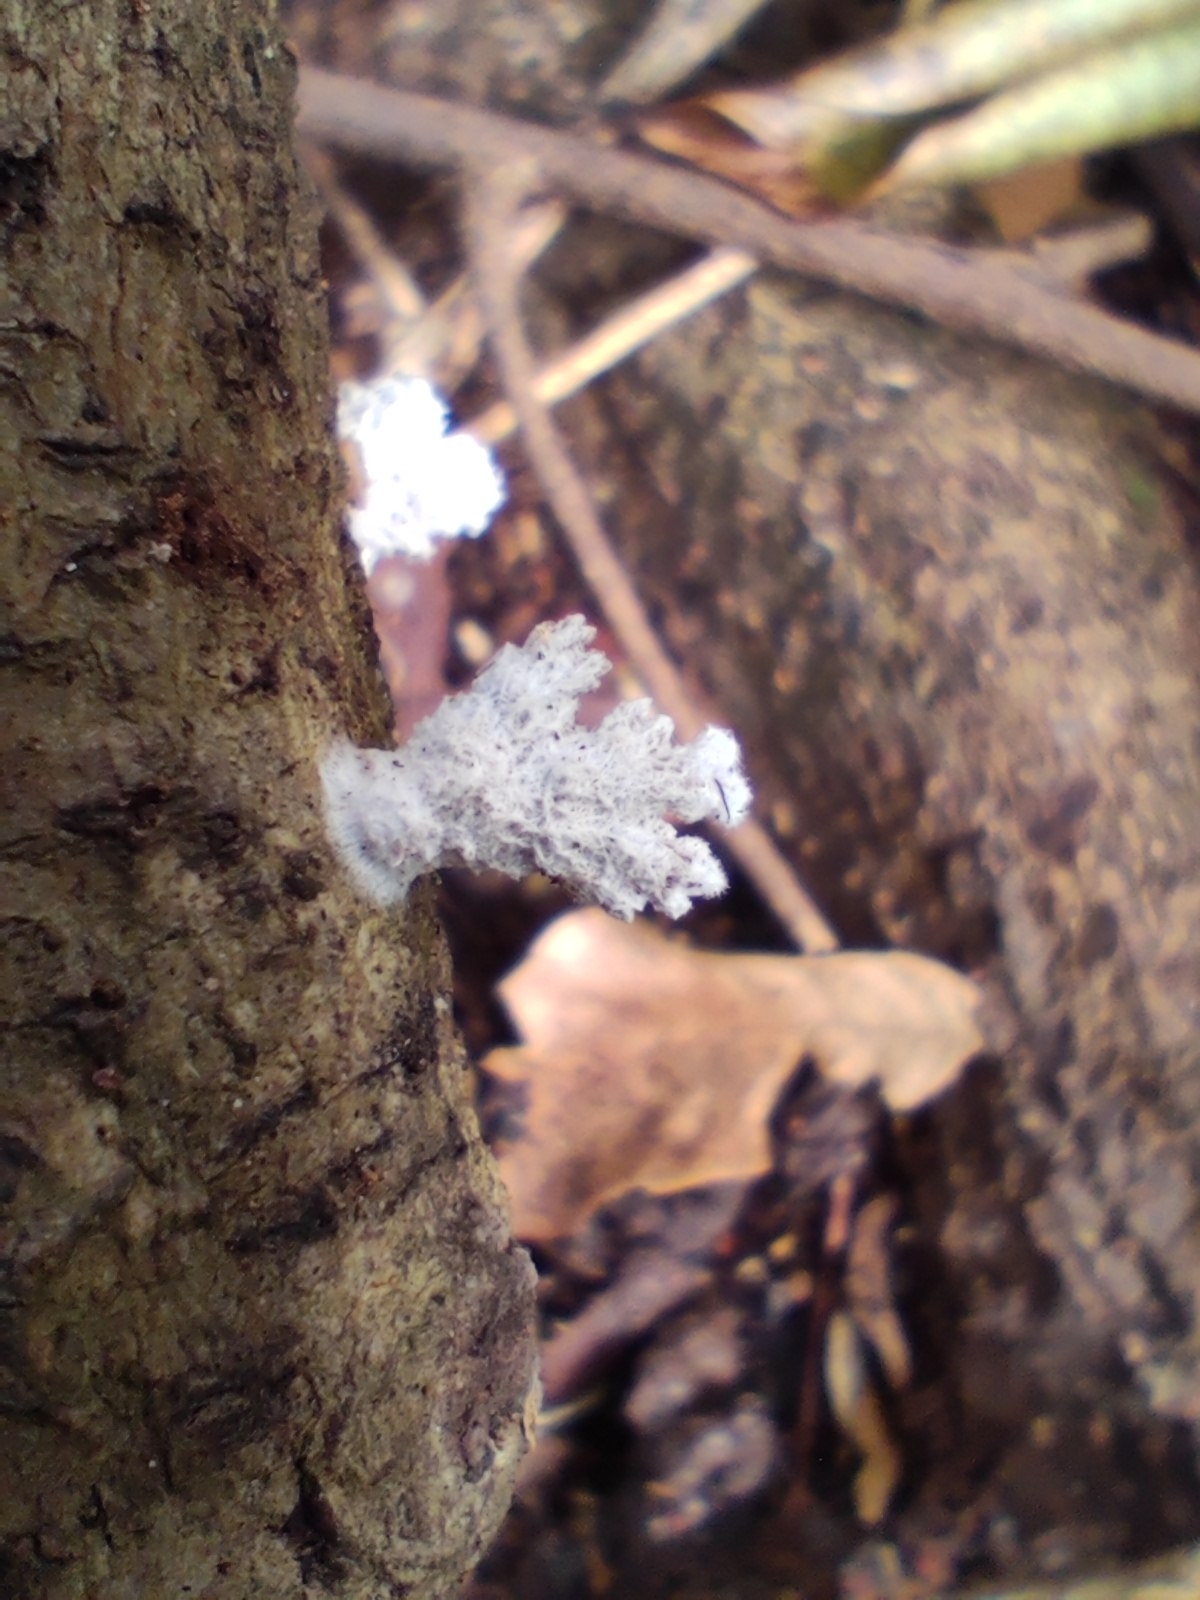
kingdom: Fungi
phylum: Basidiomycota
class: Agaricomycetes
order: Agaricales
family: Schizophyllaceae
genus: Schizophyllum
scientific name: Schizophyllum commune
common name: Common porecrust
